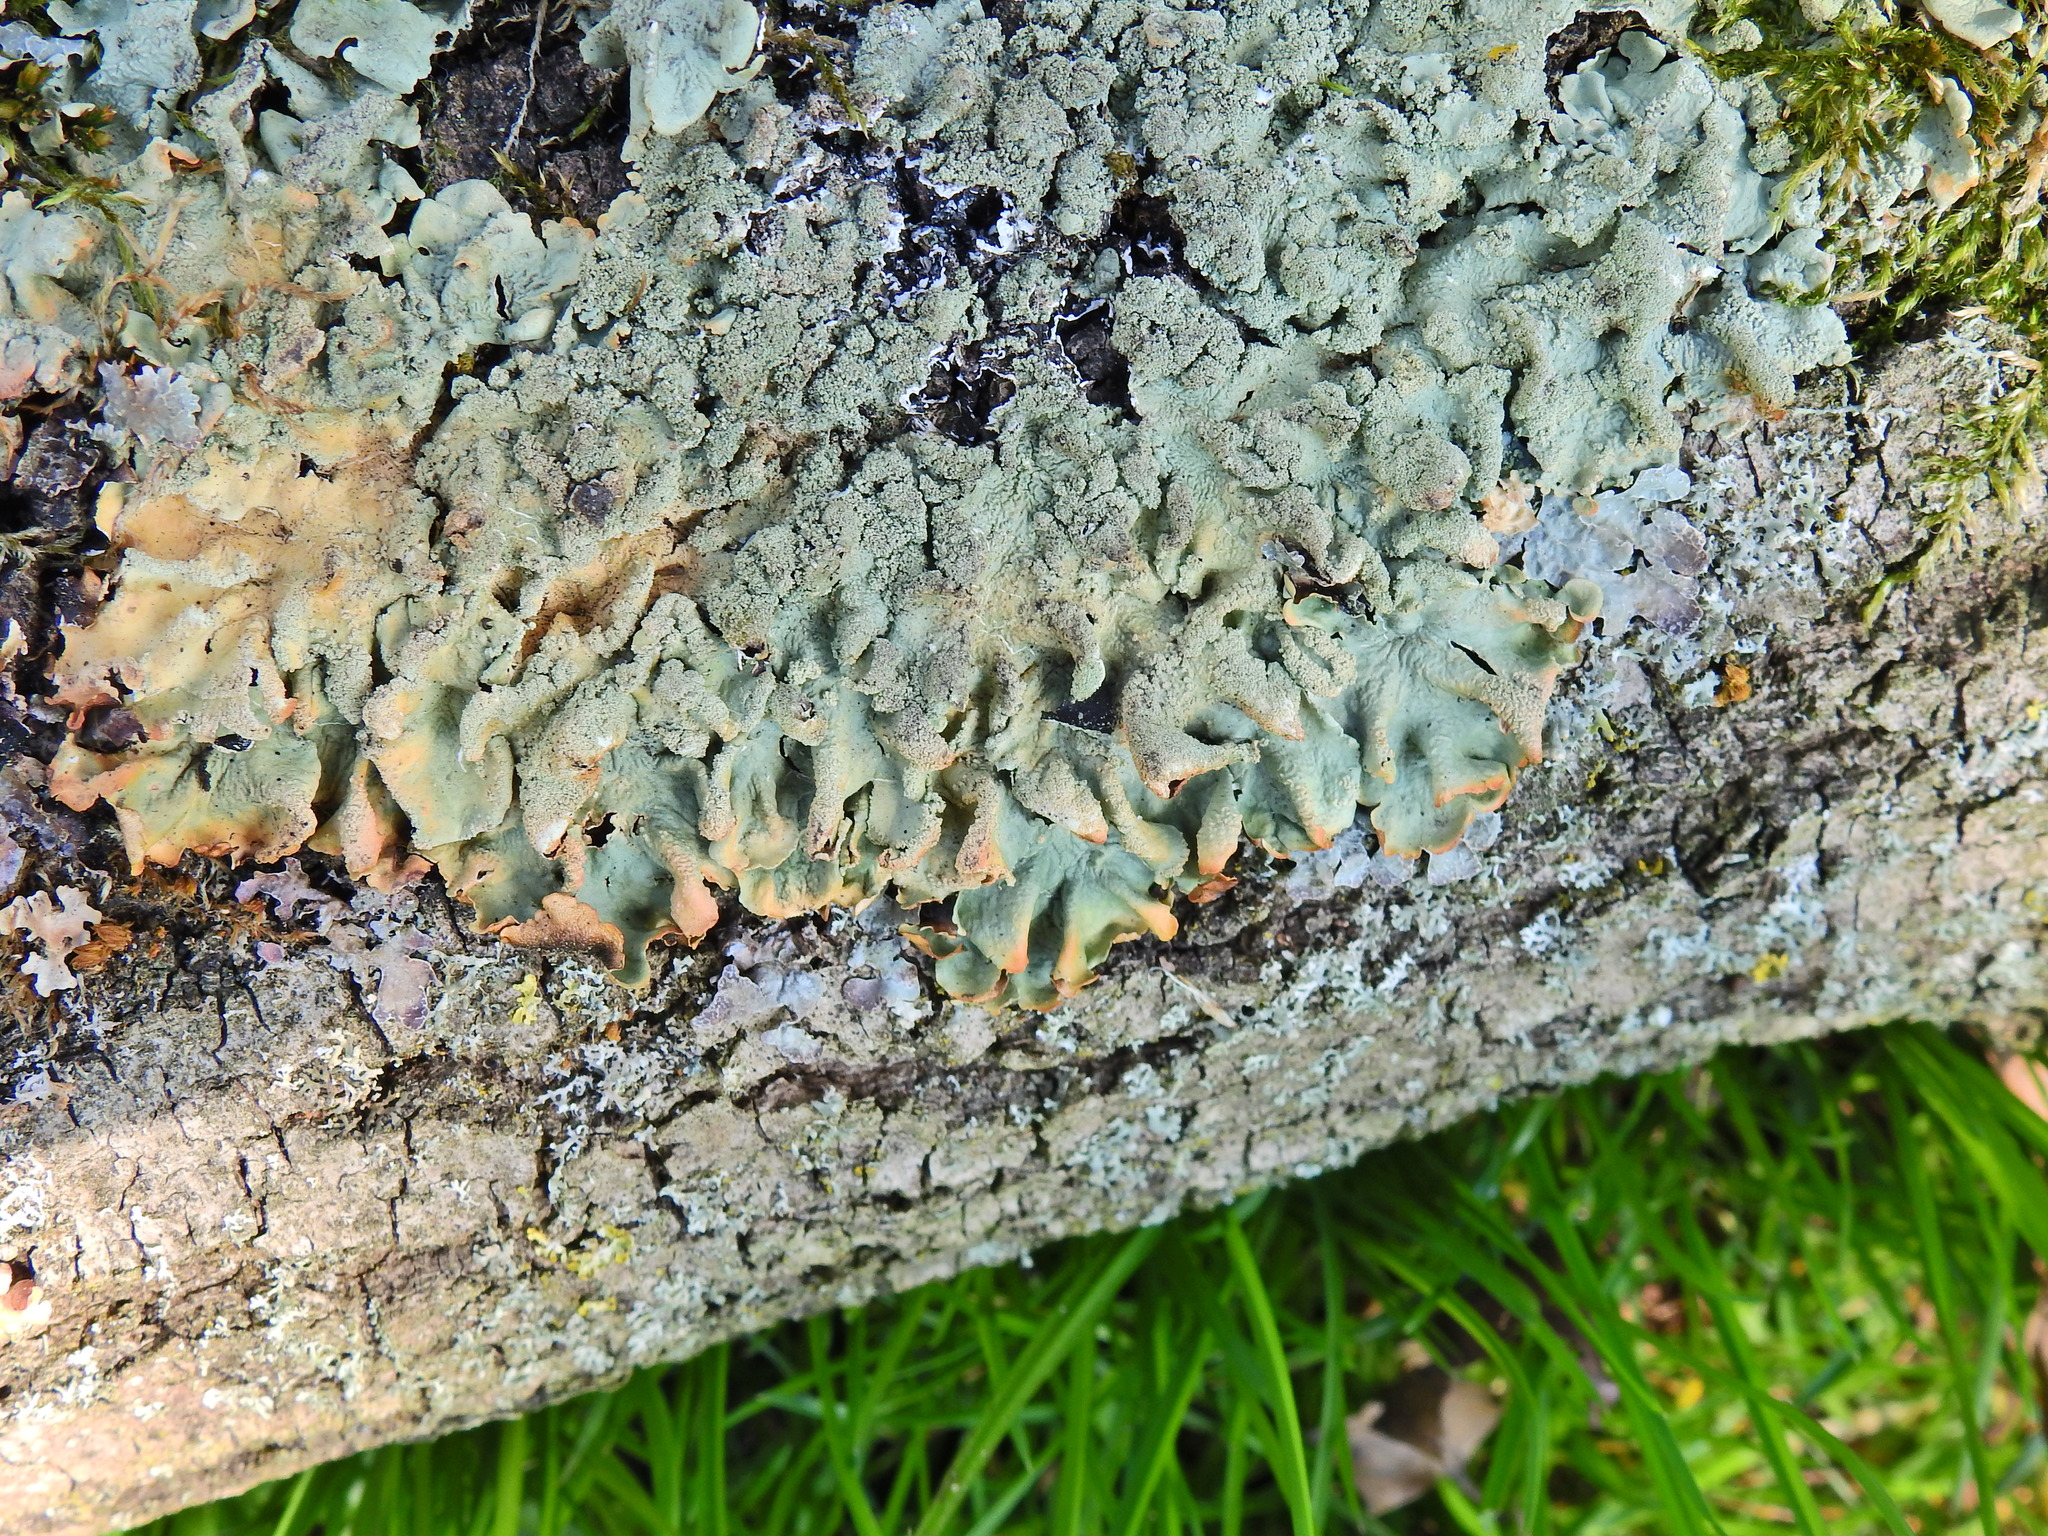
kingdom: Fungi
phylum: Ascomycota
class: Lecanoromycetes
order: Lecanorales
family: Parmeliaceae
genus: Flavoparmelia
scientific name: Flavoparmelia caperata
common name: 40-mile per hour lichen
